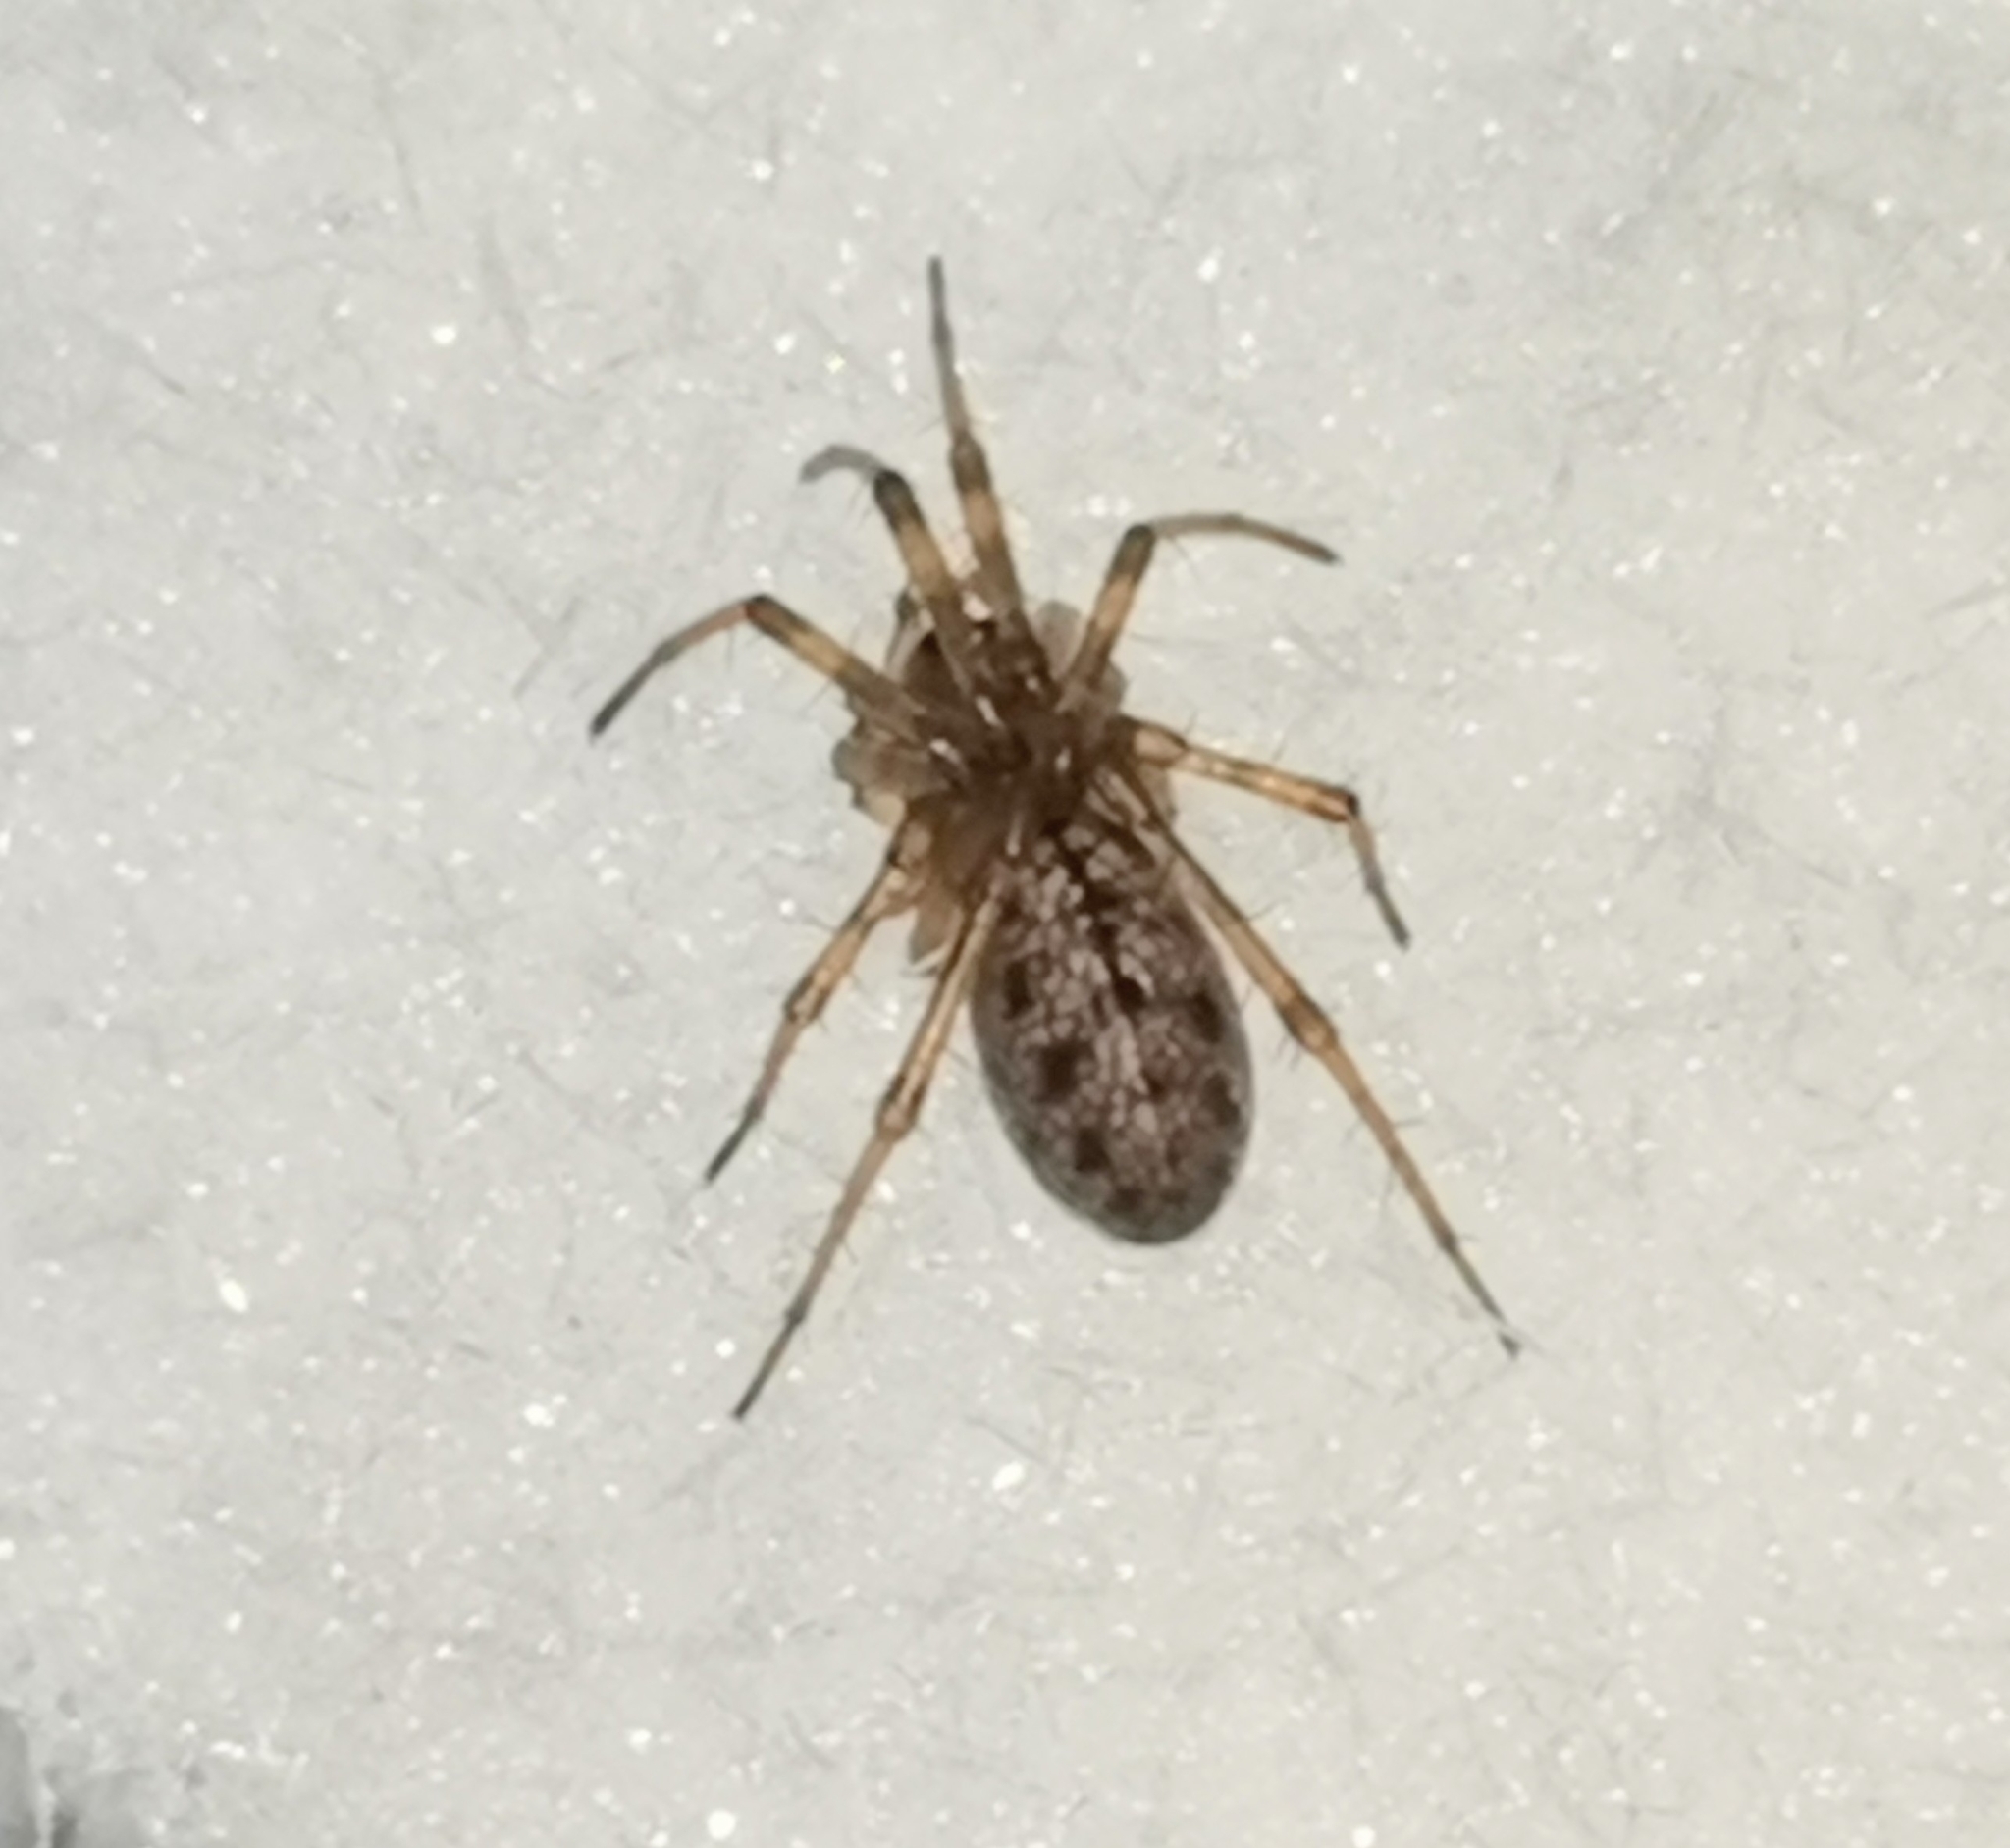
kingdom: Animalia
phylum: Arthropoda
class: Arachnida
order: Araneae
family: Linyphiidae
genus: Stemonyphantes
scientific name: Stemonyphantes lineatus
